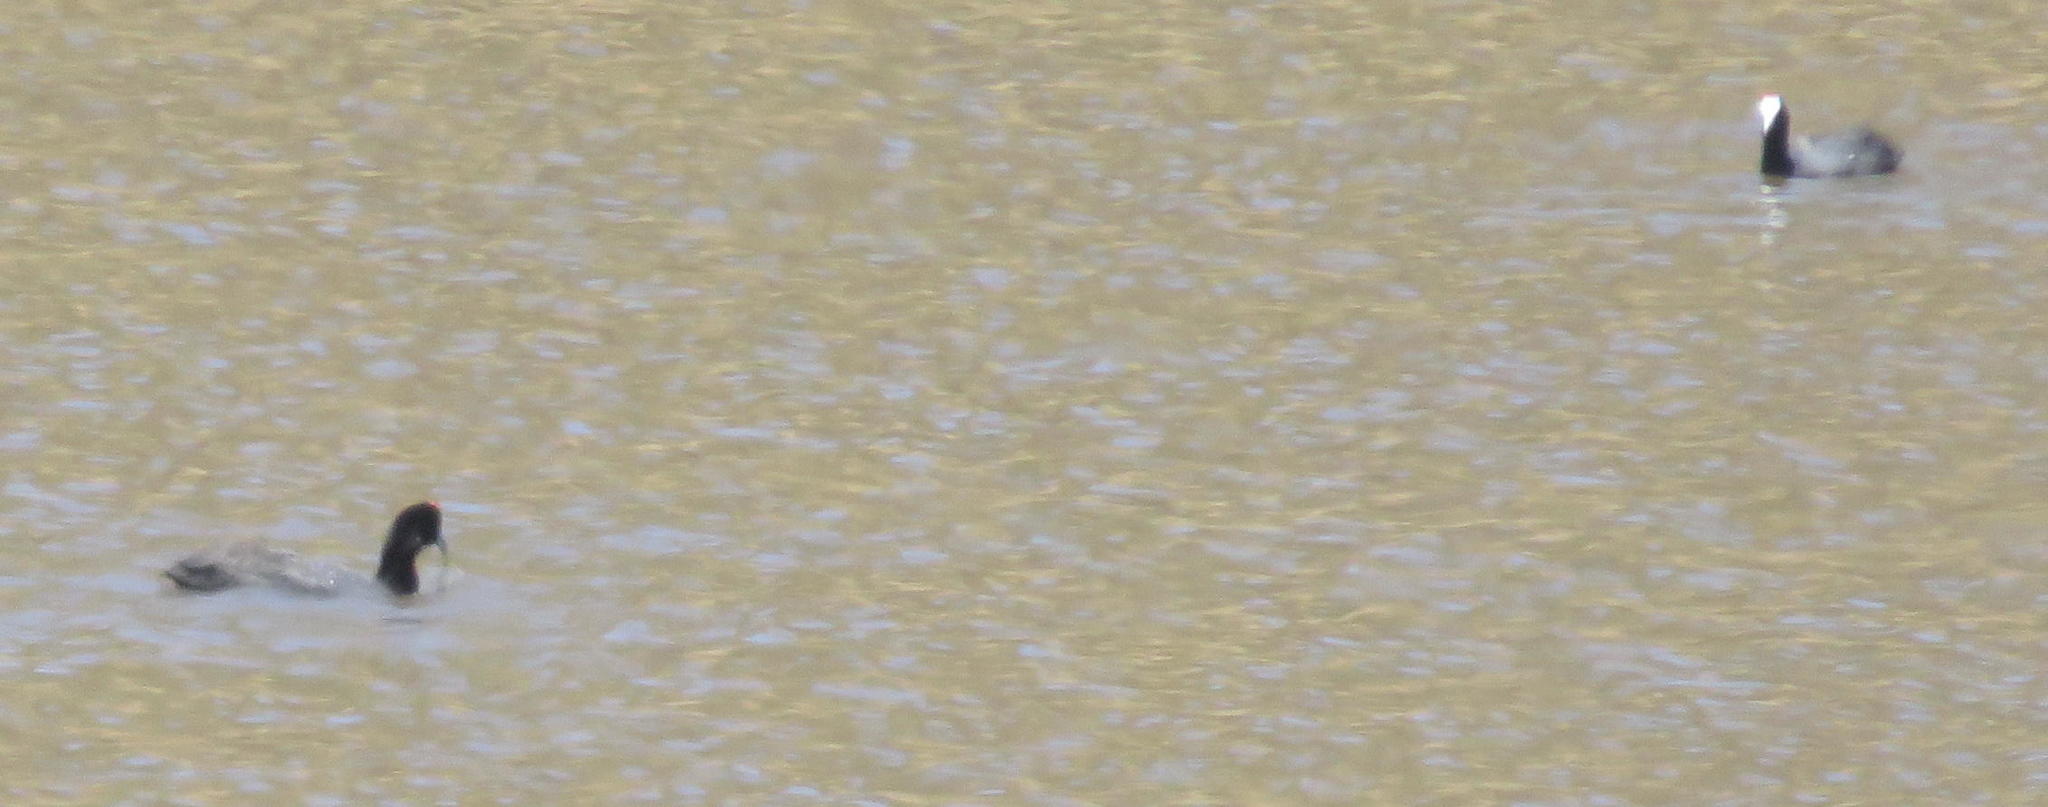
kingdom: Animalia
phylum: Chordata
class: Aves
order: Gruiformes
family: Rallidae
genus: Fulica
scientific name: Fulica cristata
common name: Red-knobbed coot
